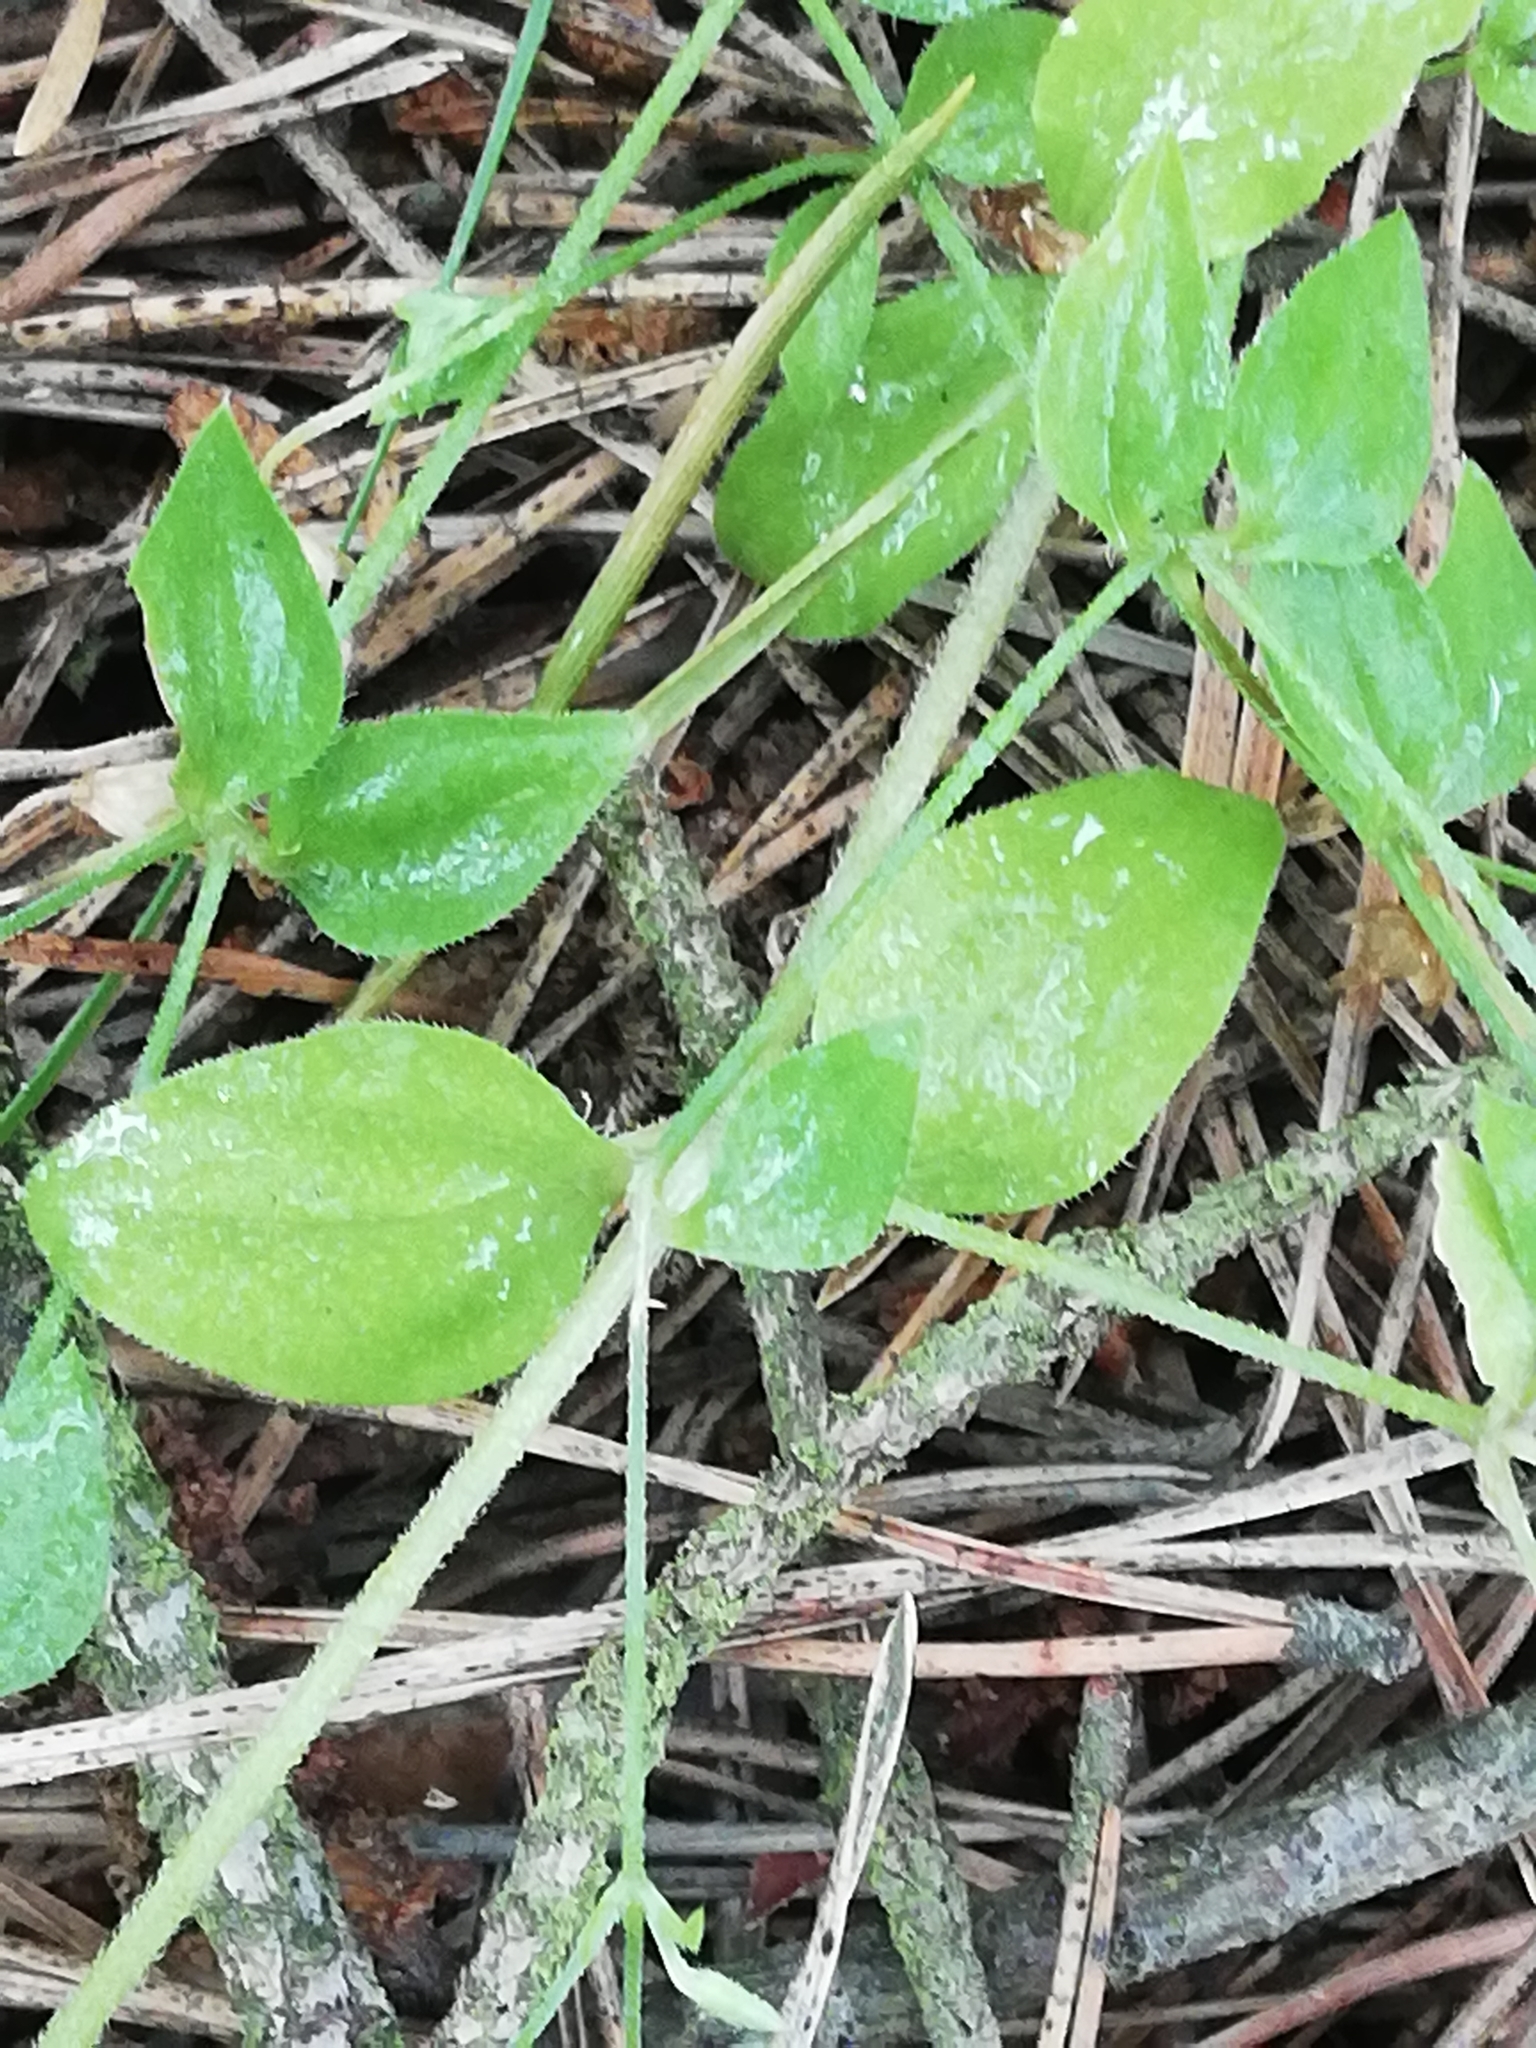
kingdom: Plantae
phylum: Tracheophyta
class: Magnoliopsida
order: Caryophyllales
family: Caryophyllaceae
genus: Moehringia
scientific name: Moehringia trinervia
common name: Three-nerved sandwort
